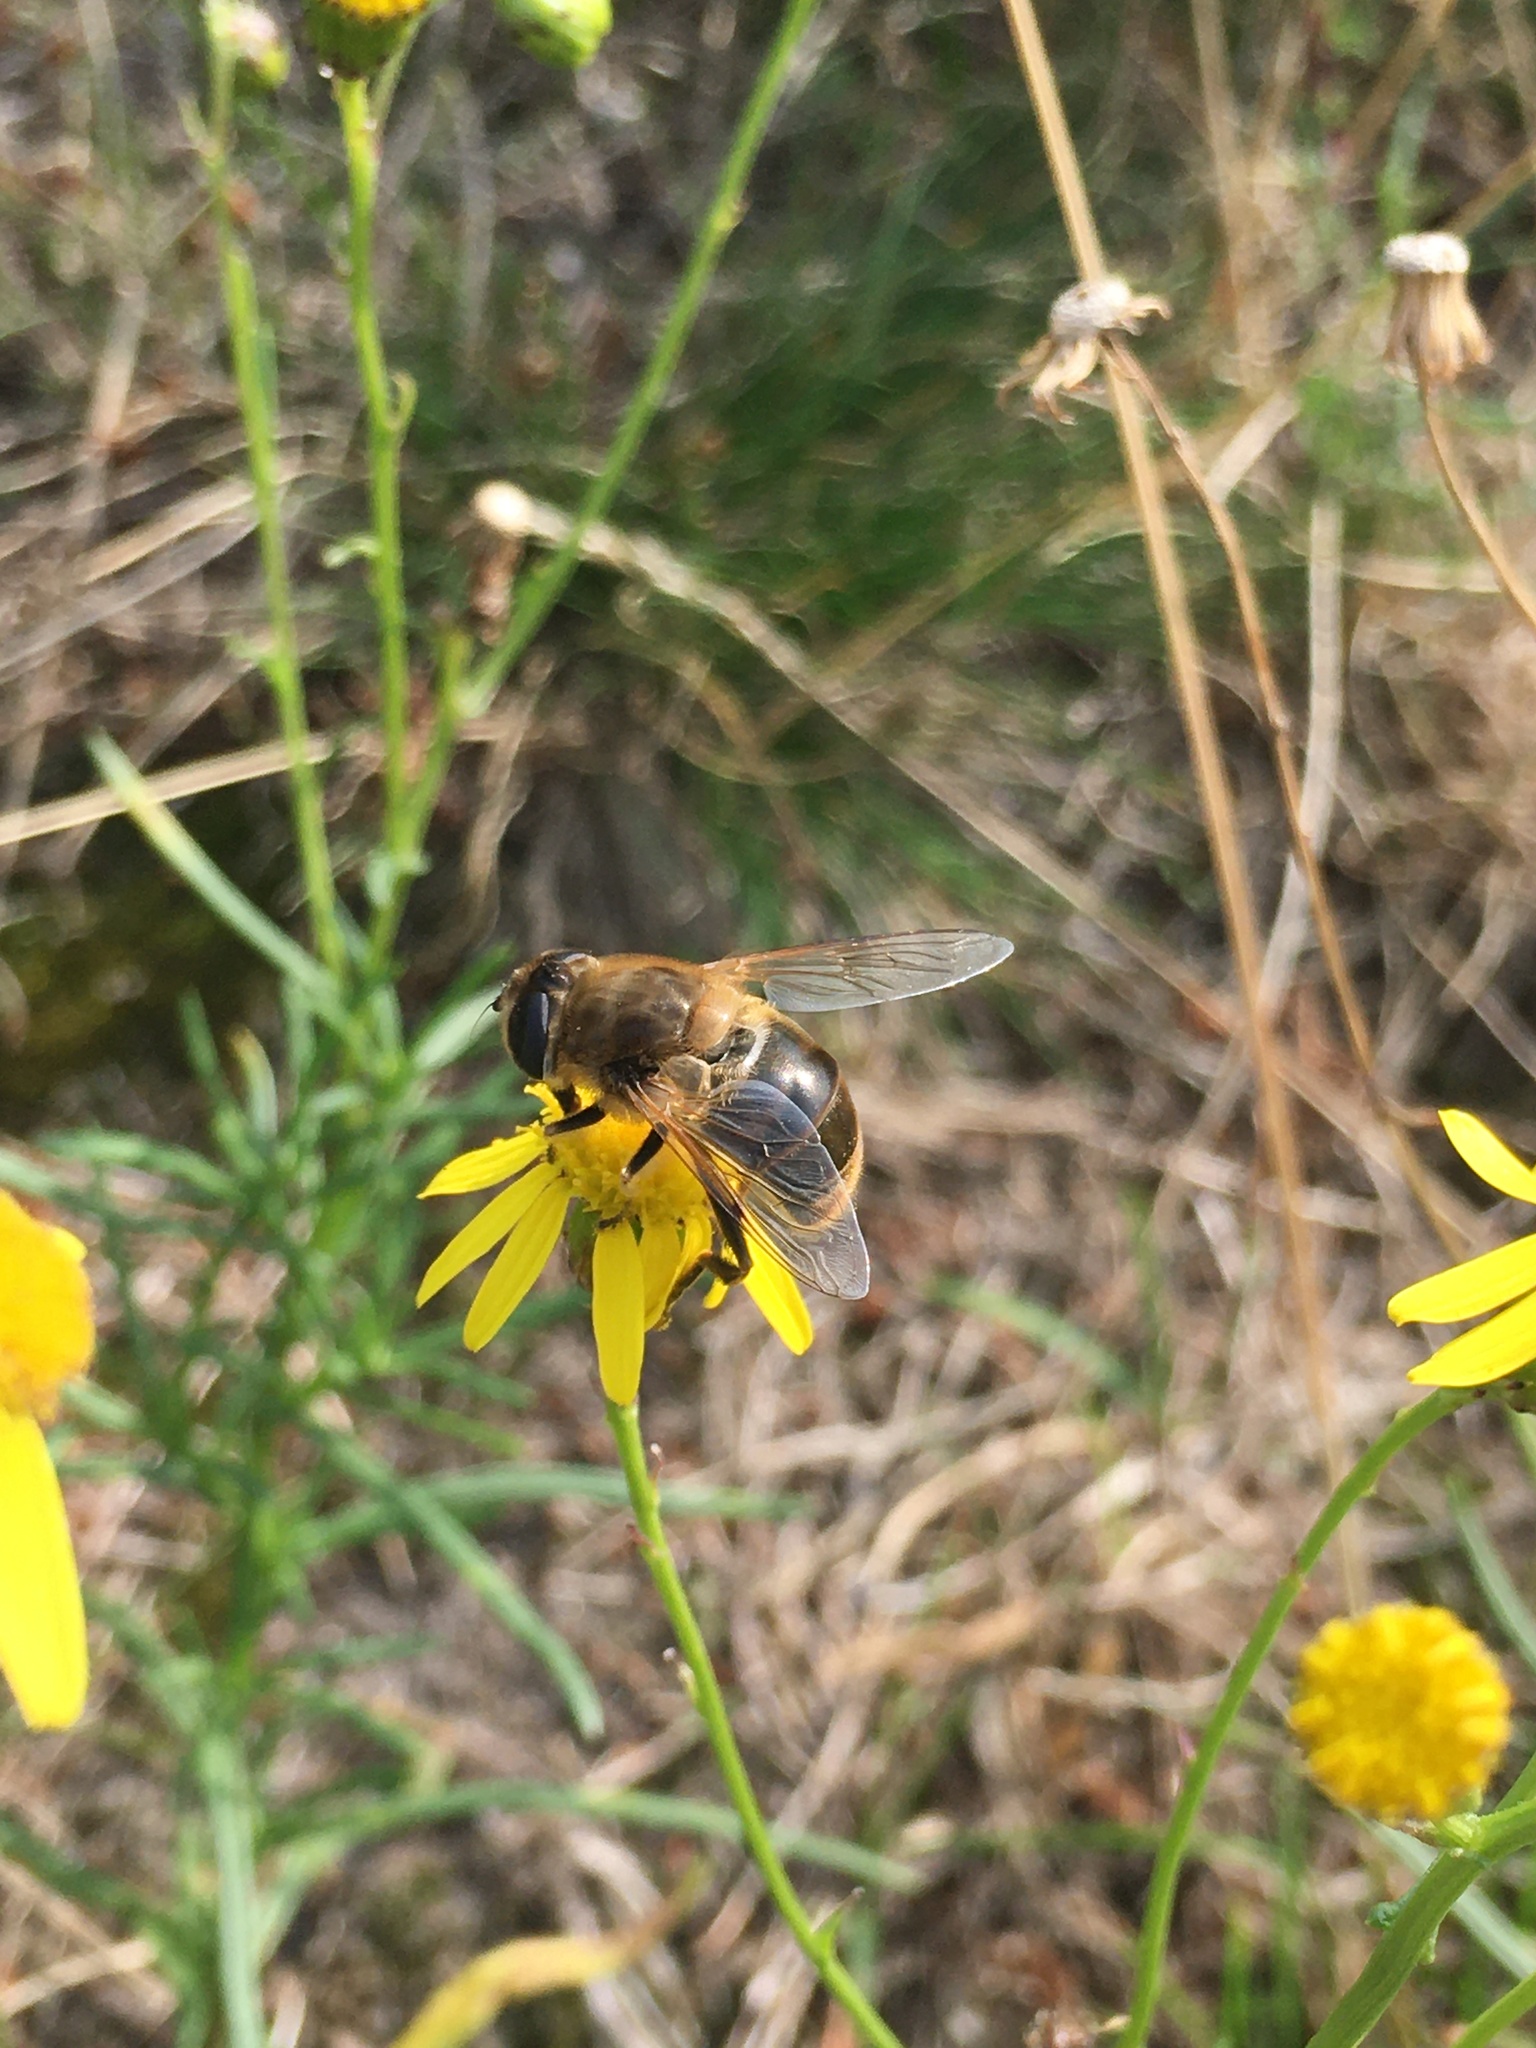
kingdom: Animalia
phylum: Arthropoda
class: Insecta
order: Diptera
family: Syrphidae
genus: Eristalis
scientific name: Eristalis tenax
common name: Drone fly
